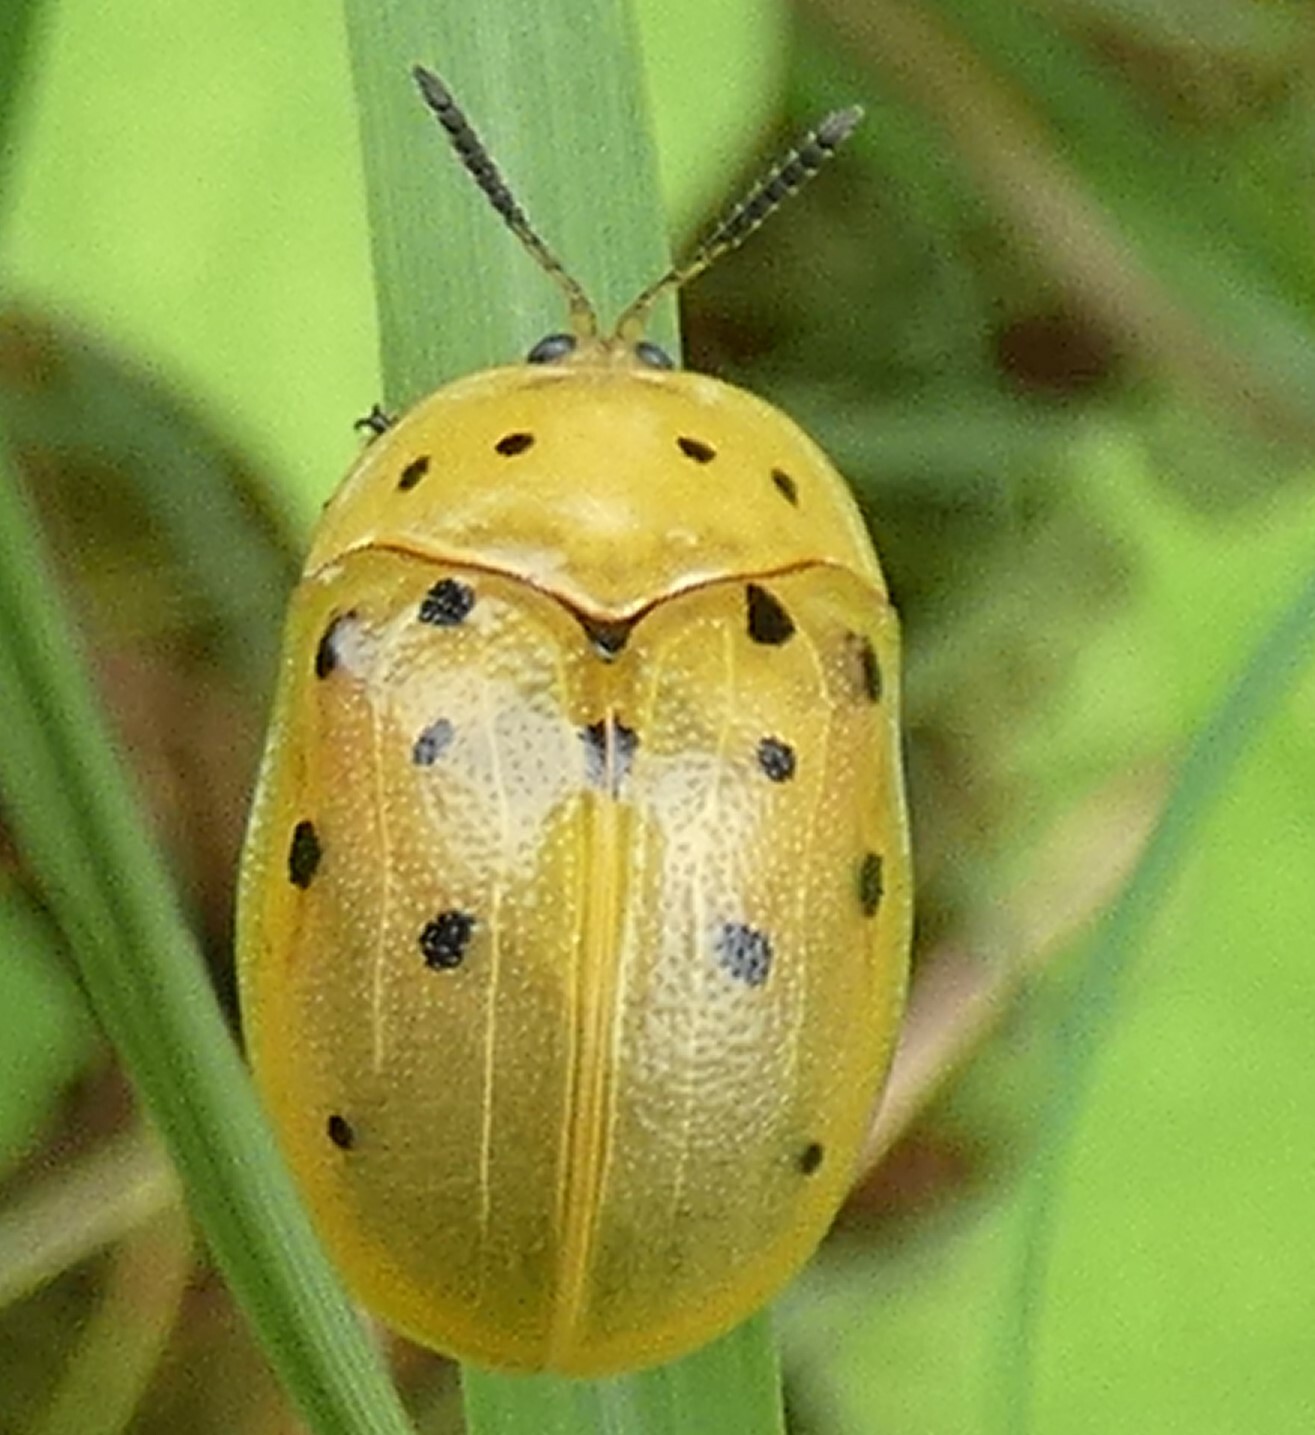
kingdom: Animalia
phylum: Arthropoda
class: Insecta
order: Coleoptera
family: Chrysomelidae
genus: Chelymorpha
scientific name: Chelymorpha cassidea
